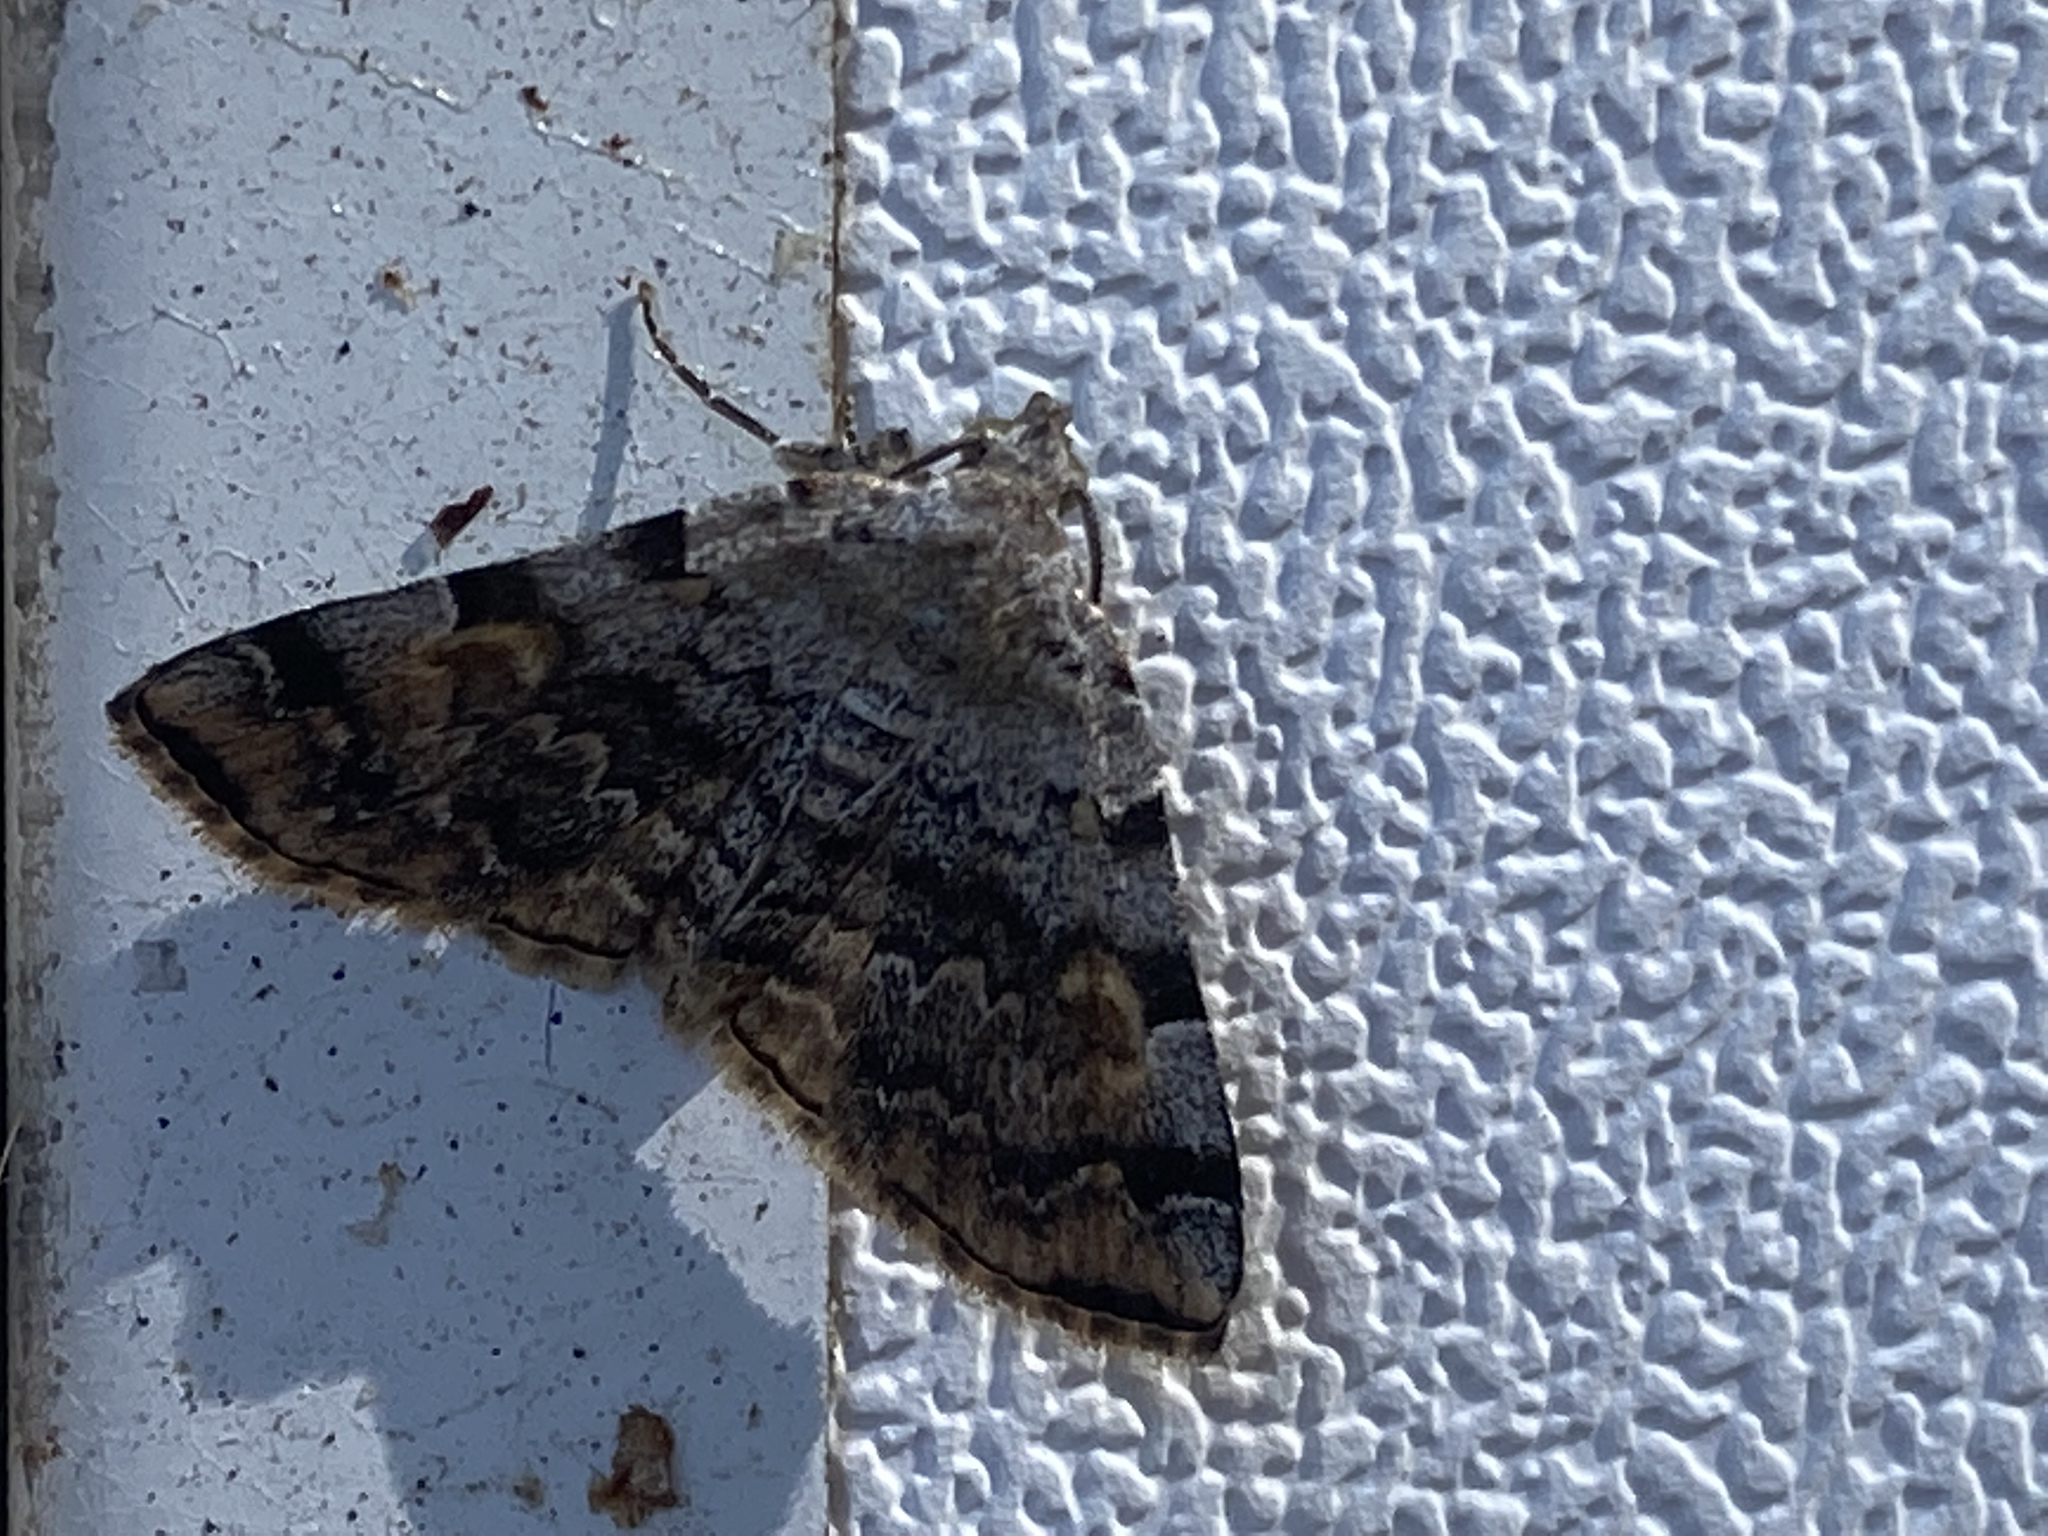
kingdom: Animalia
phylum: Arthropoda
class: Insecta
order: Lepidoptera
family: Erebidae
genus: Idia
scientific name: Idia americalis
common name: American idia moth
